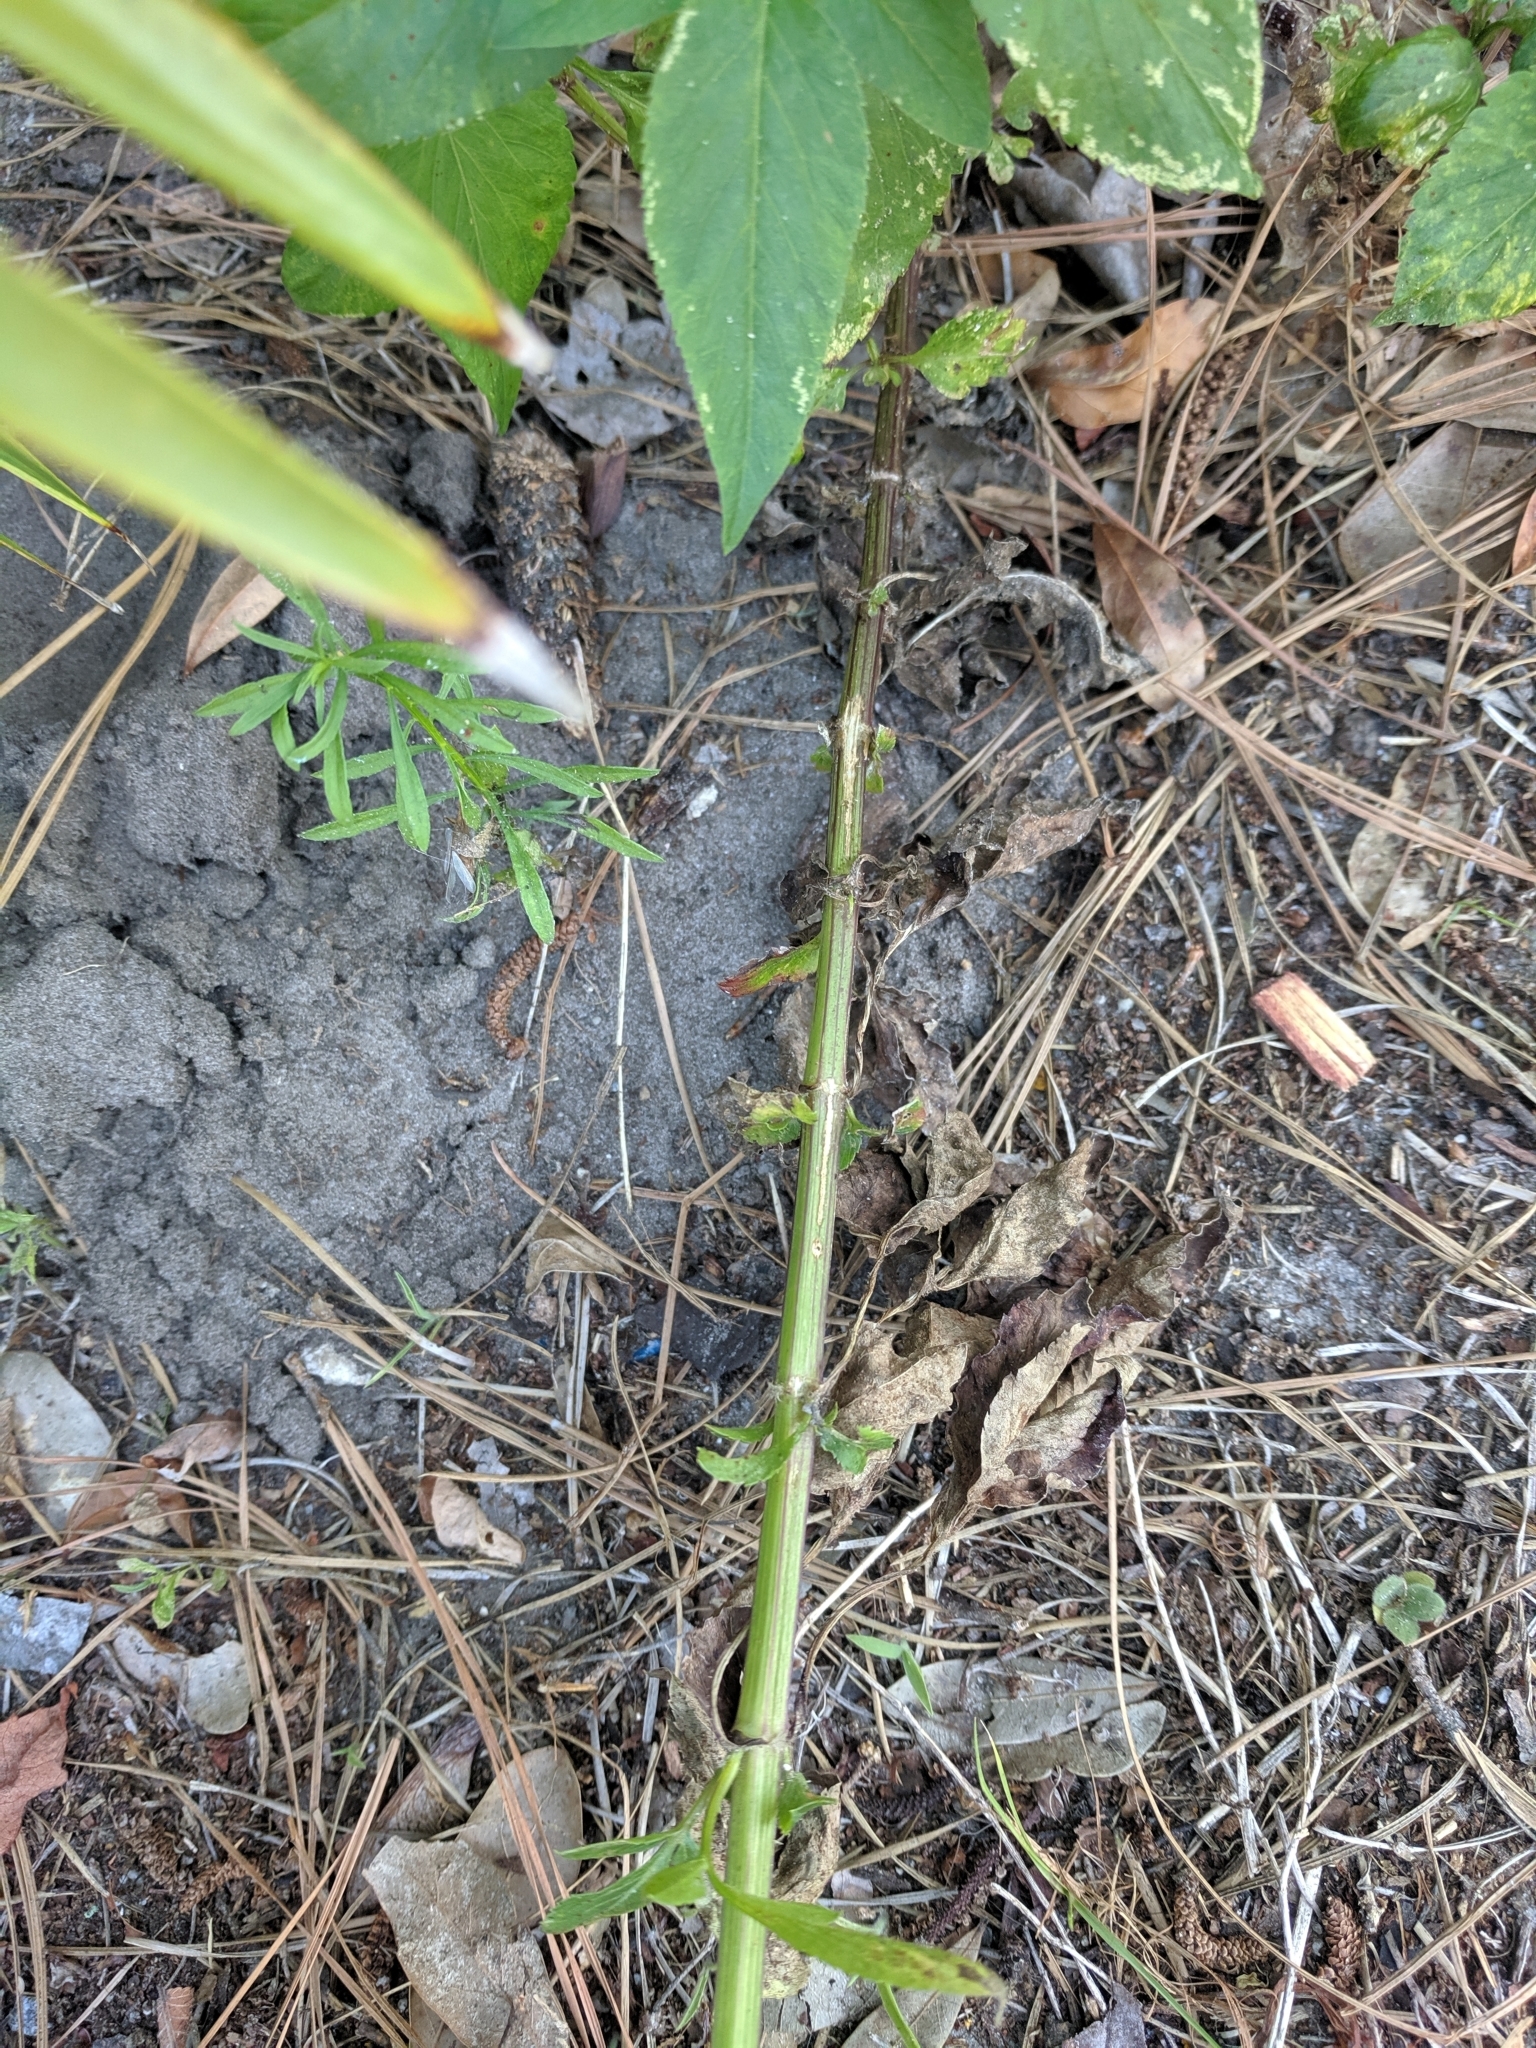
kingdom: Plantae
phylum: Tracheophyta
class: Magnoliopsida
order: Asterales
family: Asteraceae
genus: Bidens
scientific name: Bidens alba
